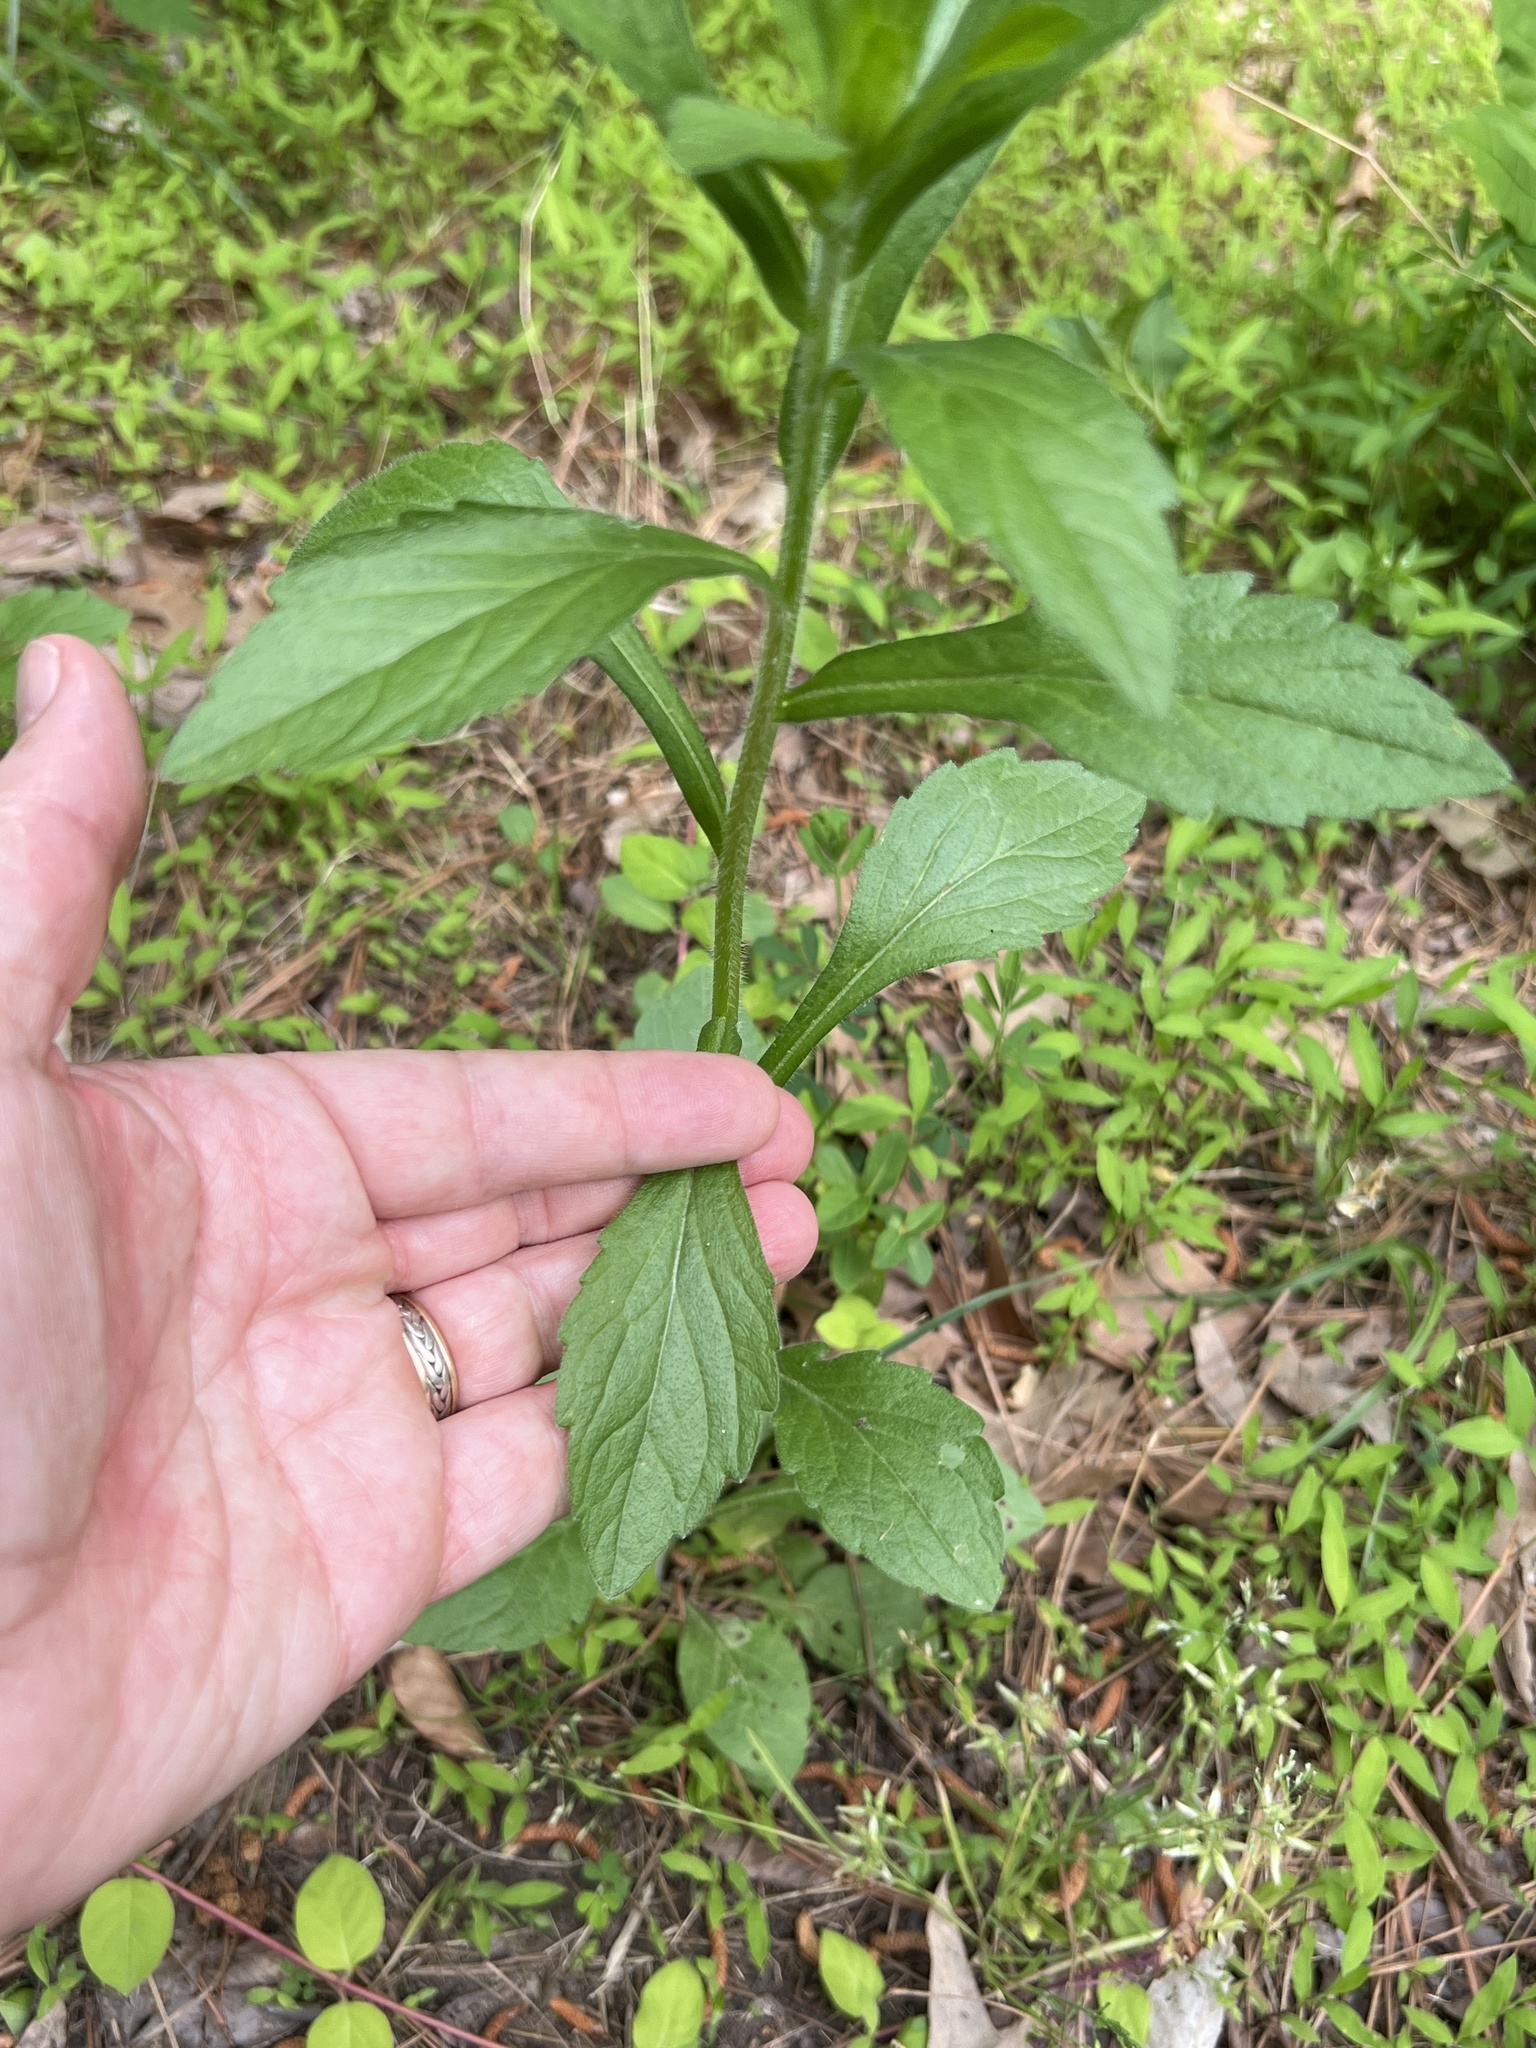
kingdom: Plantae
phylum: Tracheophyta
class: Magnoliopsida
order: Asterales
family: Asteraceae
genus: Erigeron
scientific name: Erigeron annuus
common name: Tall fleabane
